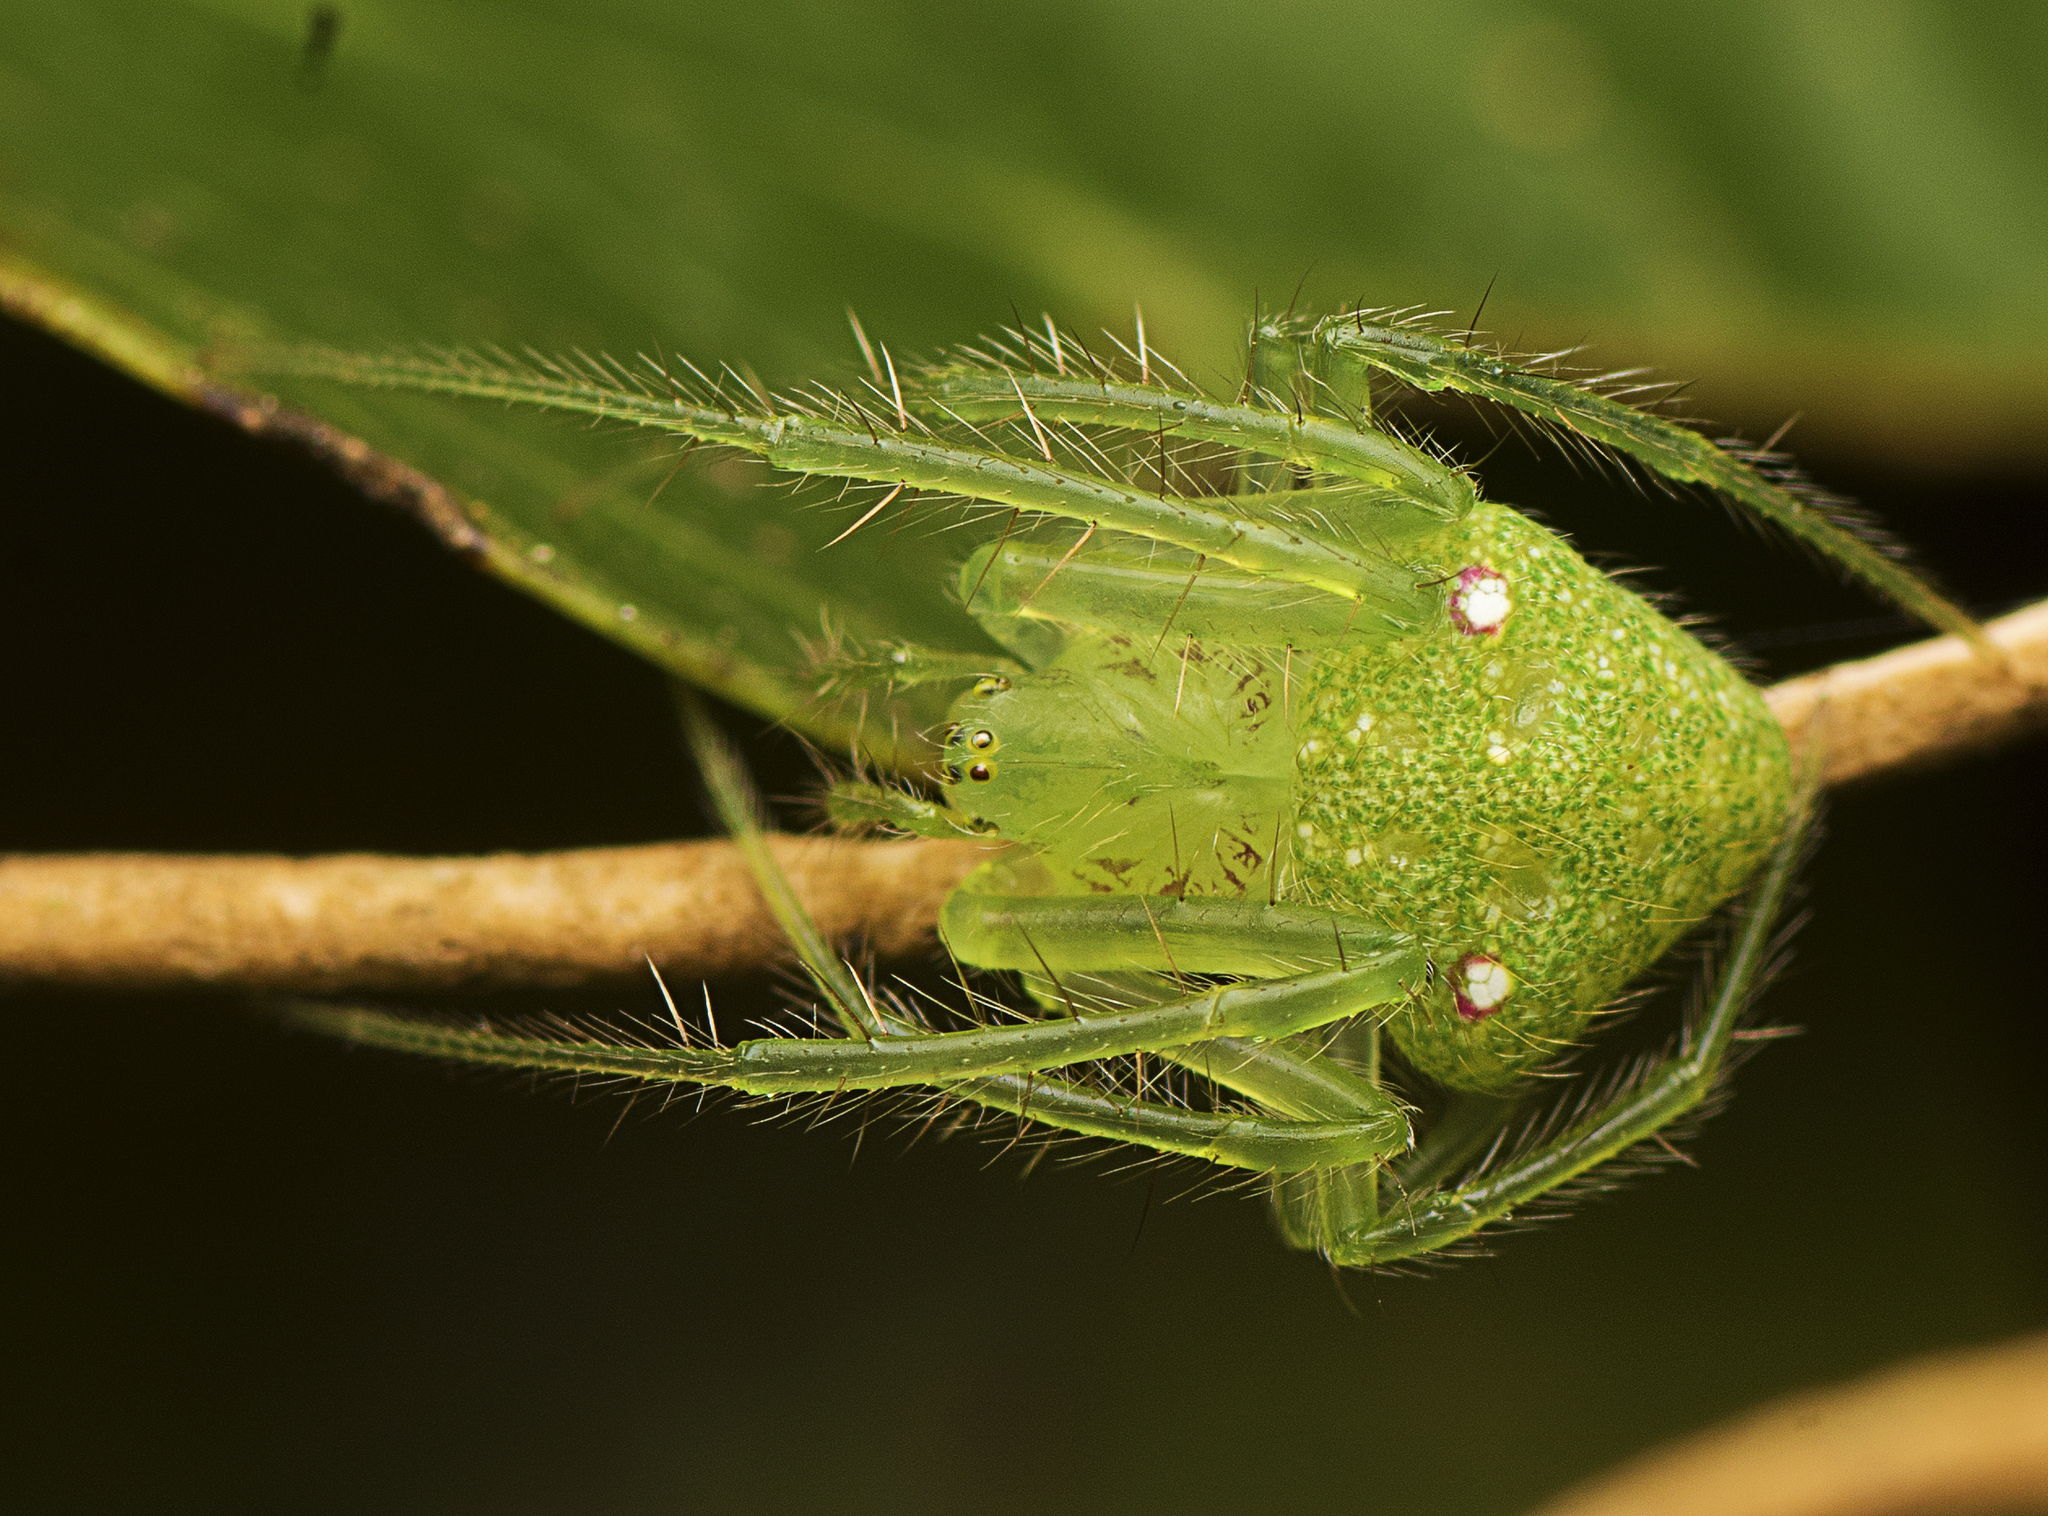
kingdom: Animalia
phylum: Arthropoda
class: Arachnida
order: Araneae
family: Araneidae
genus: Araneus
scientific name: Araneus circulissparsus
